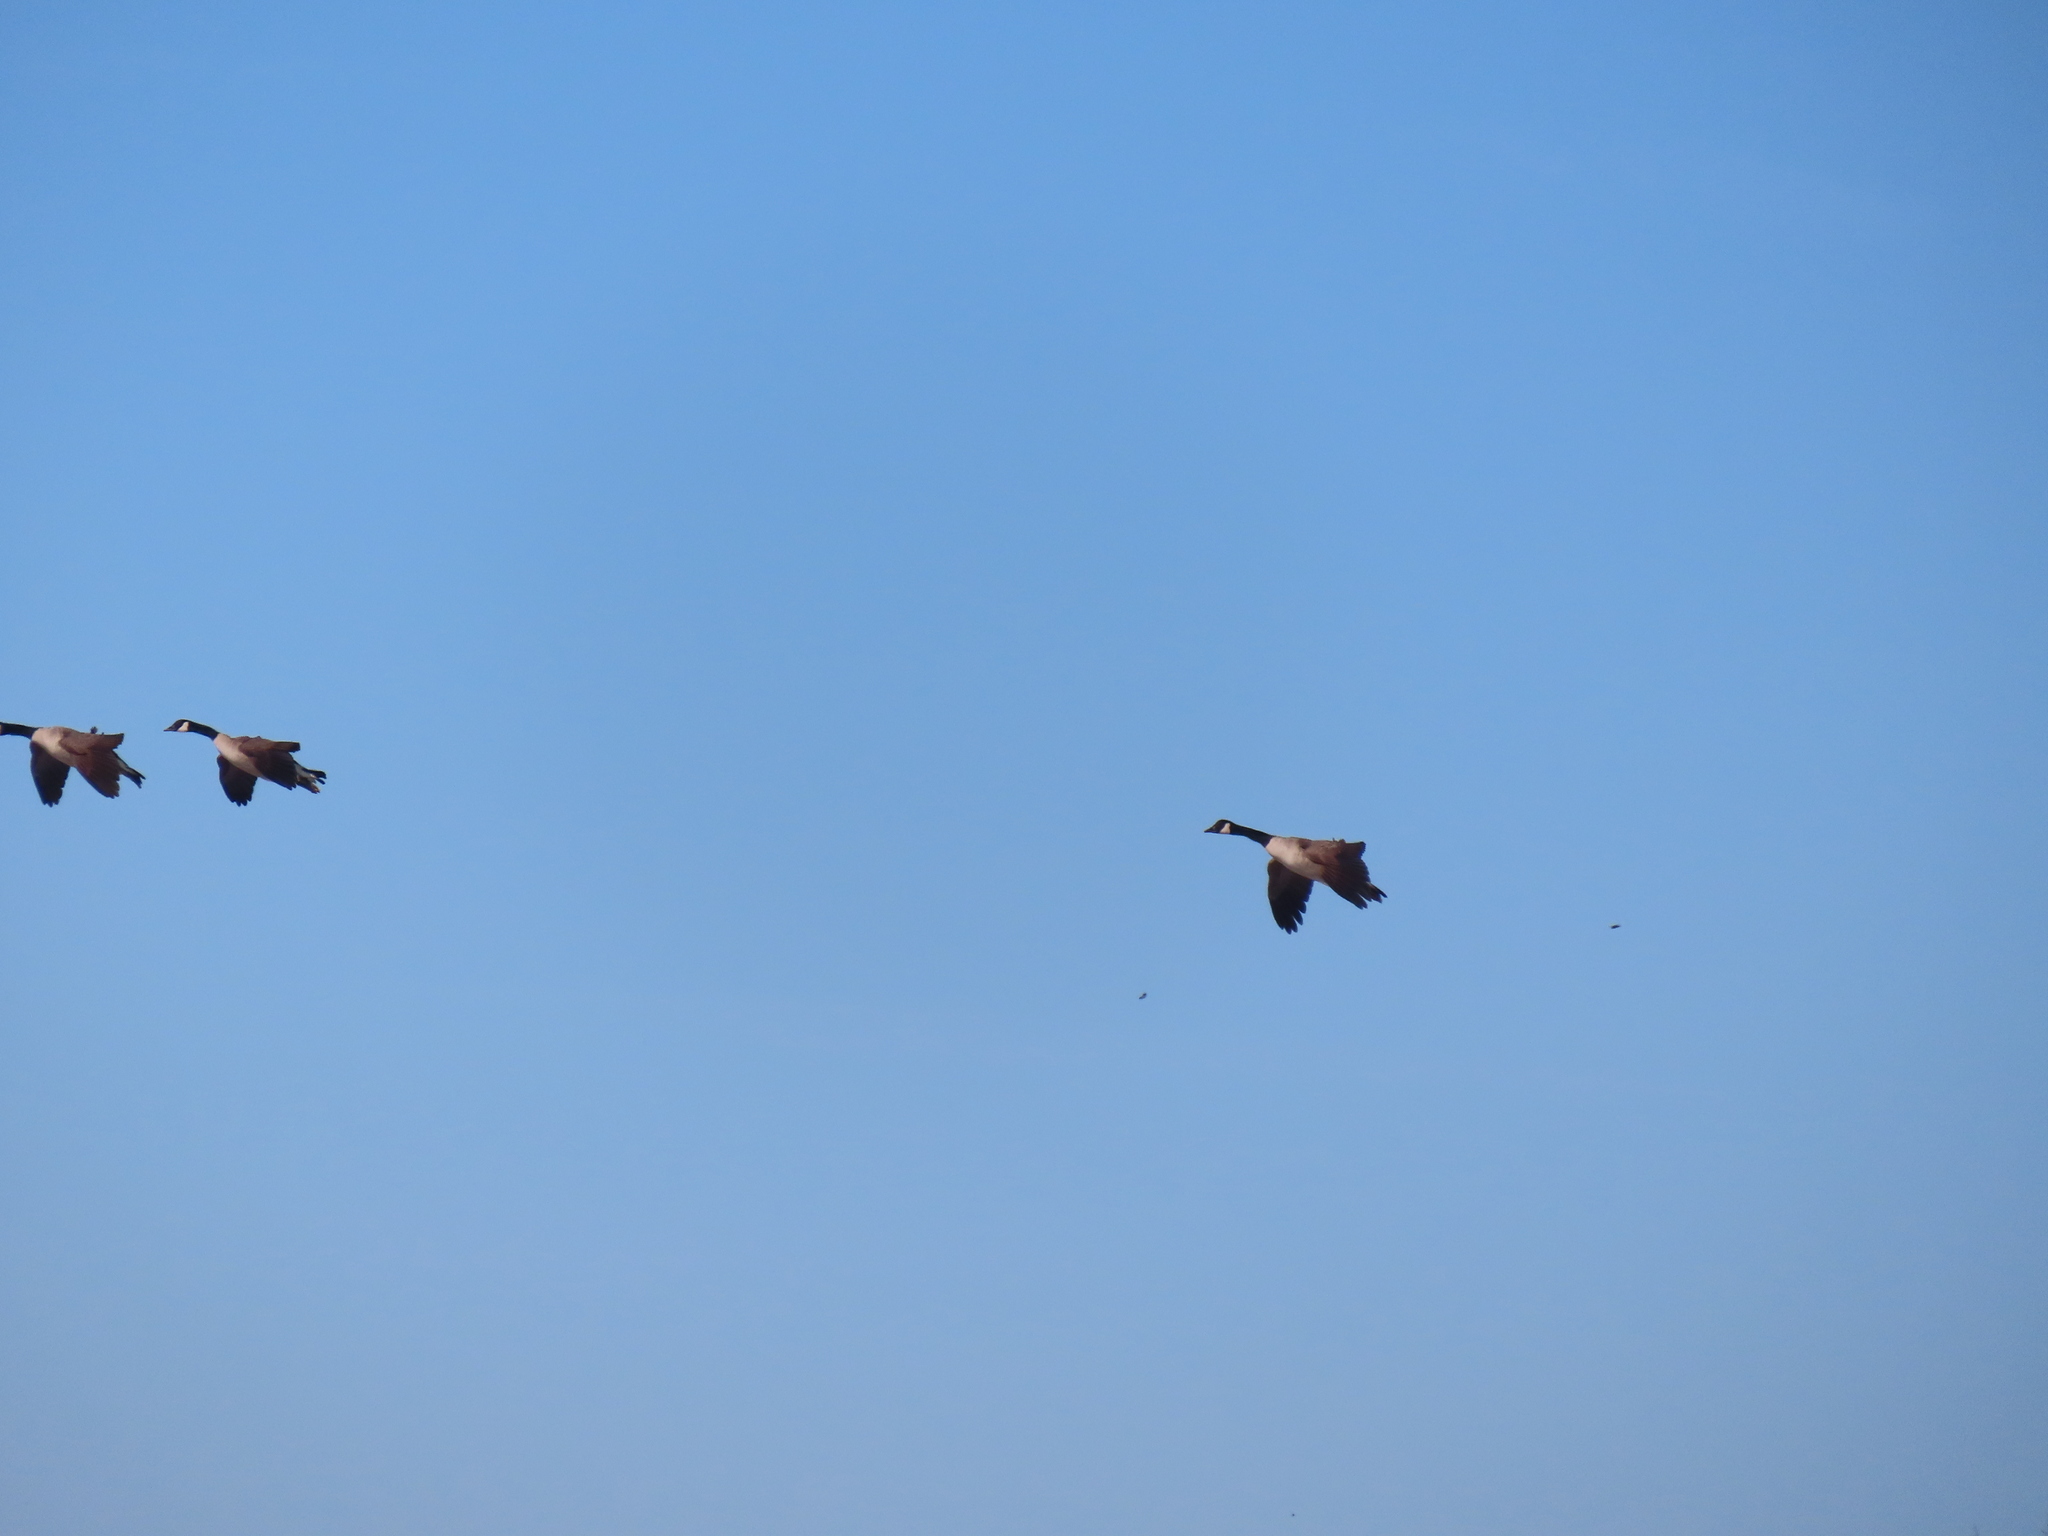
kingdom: Animalia
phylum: Chordata
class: Aves
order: Anseriformes
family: Anatidae
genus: Branta
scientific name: Branta canadensis
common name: Canada goose
